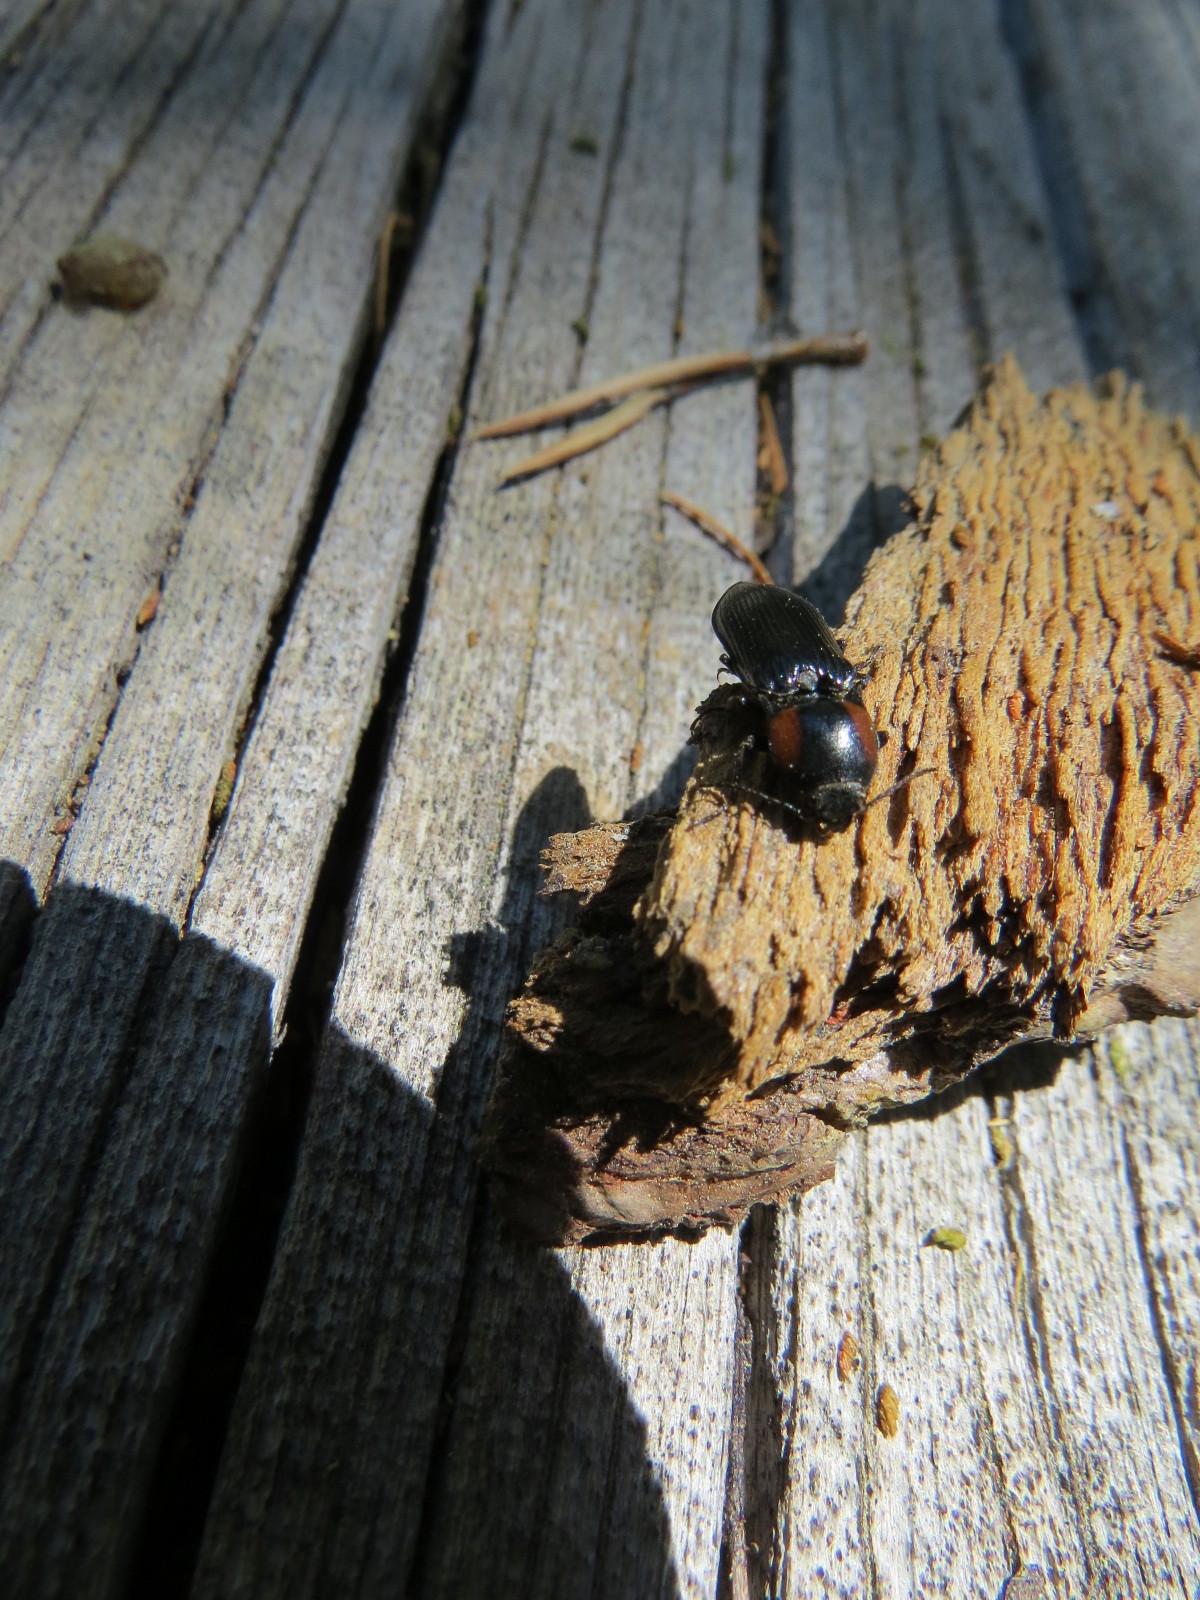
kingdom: Animalia
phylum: Arthropoda
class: Insecta
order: Coleoptera
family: Elateridae
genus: Selatosomus
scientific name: Selatosomus
